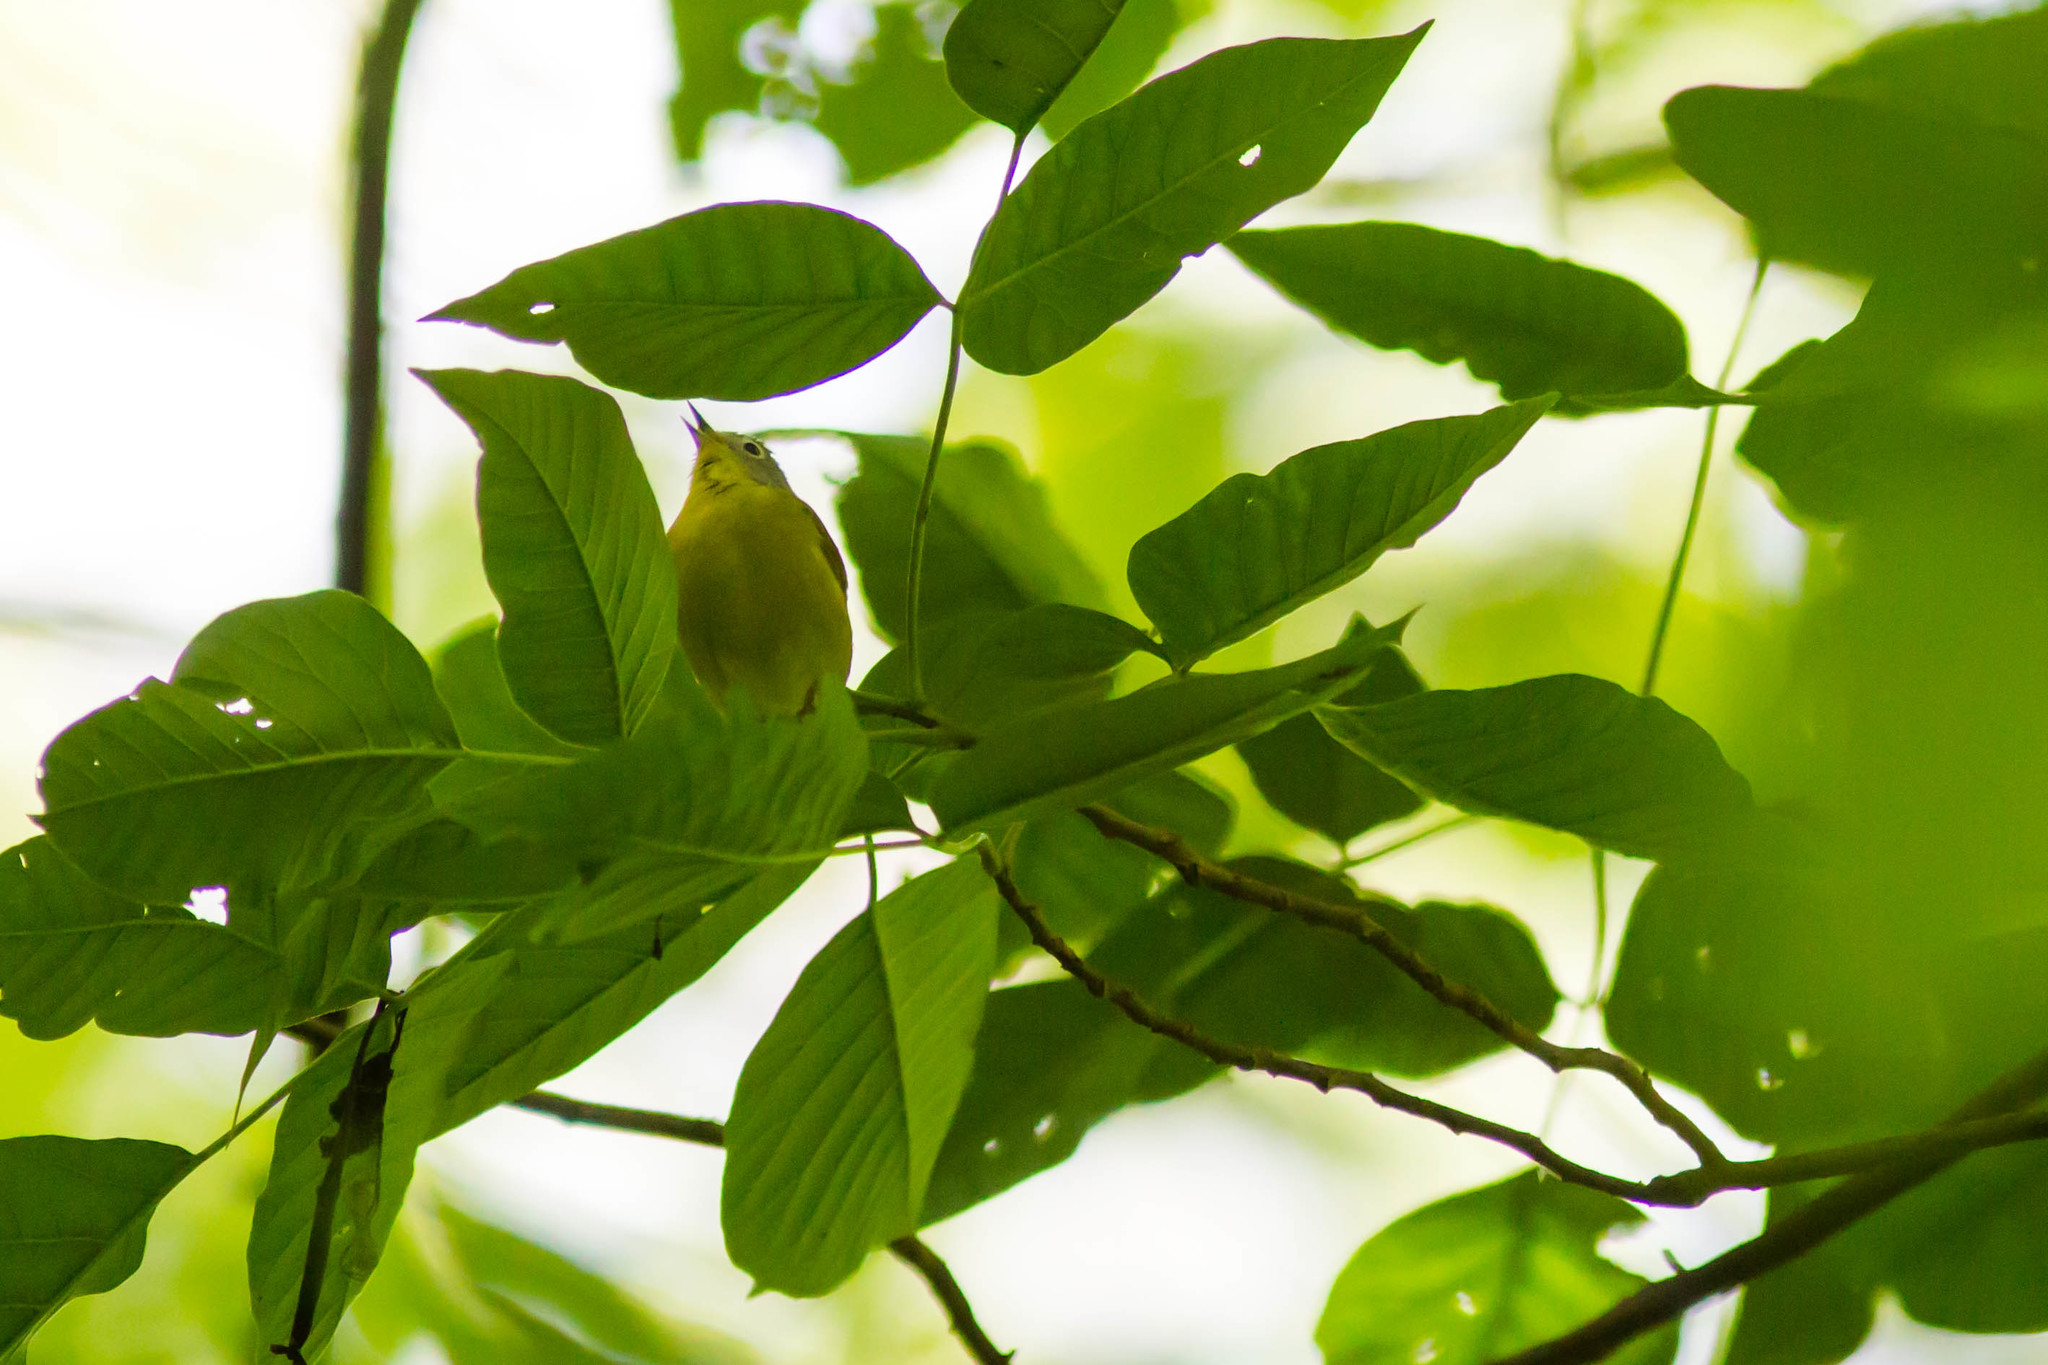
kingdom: Animalia
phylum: Chordata
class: Aves
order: Passeriformes
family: Parulidae
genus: Leiothlypis
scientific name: Leiothlypis ruficapilla
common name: Nashville warbler
